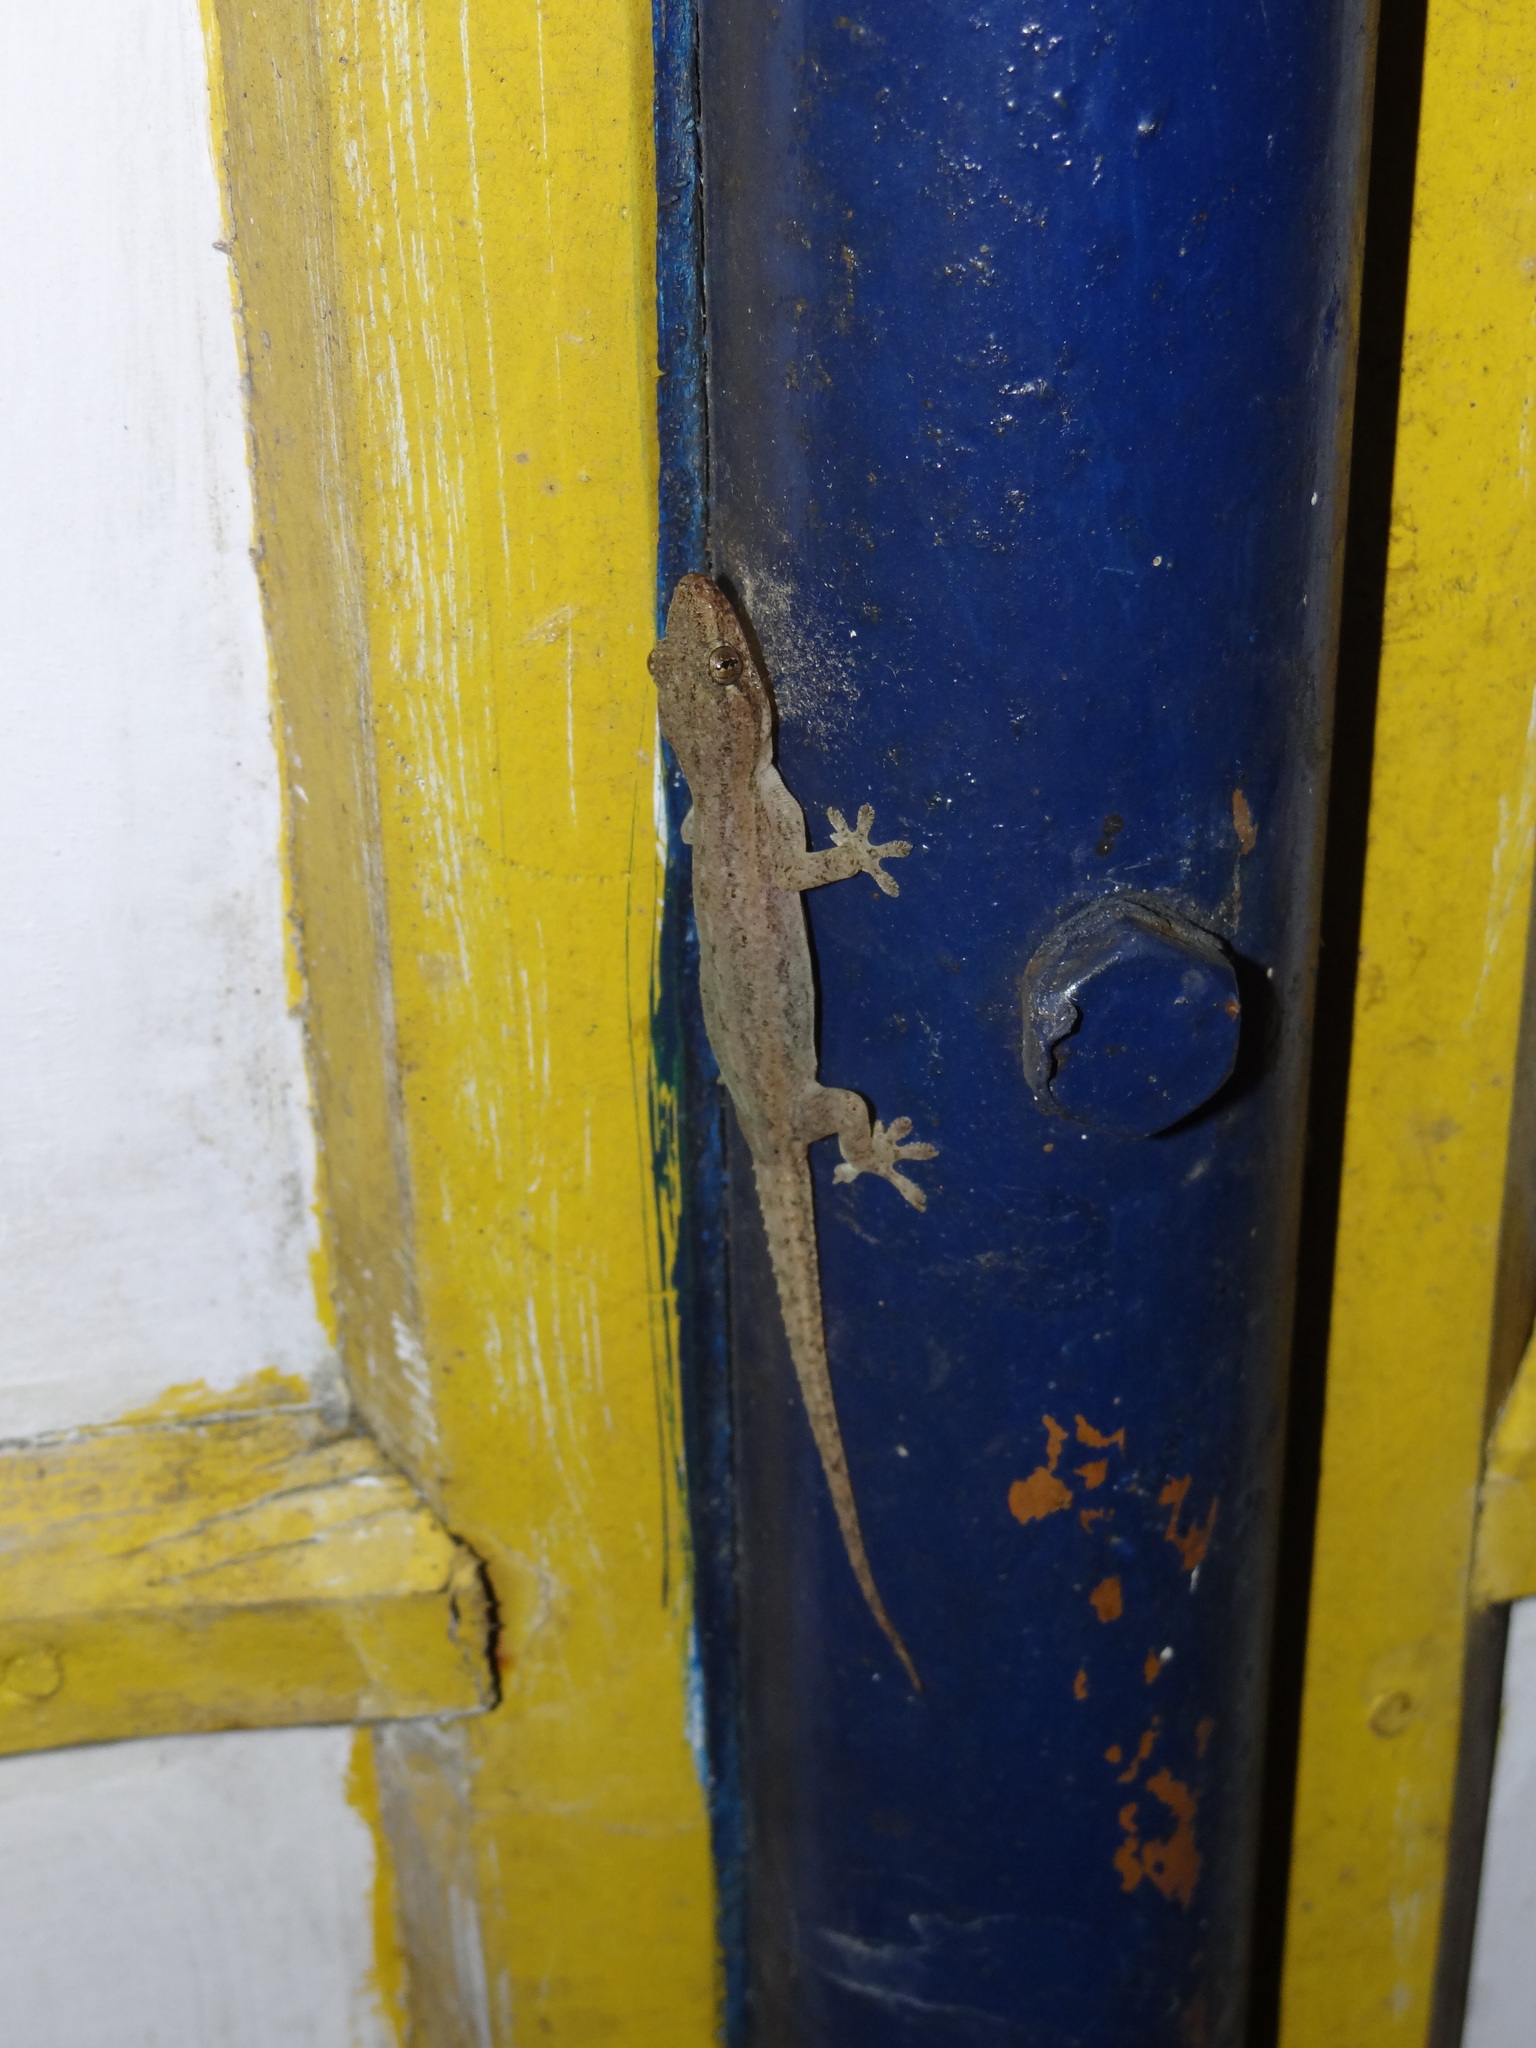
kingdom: Animalia
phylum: Chordata
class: Squamata
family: Gekkonidae
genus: Hemidactylus
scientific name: Hemidactylus frenatus
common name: Common house gecko
